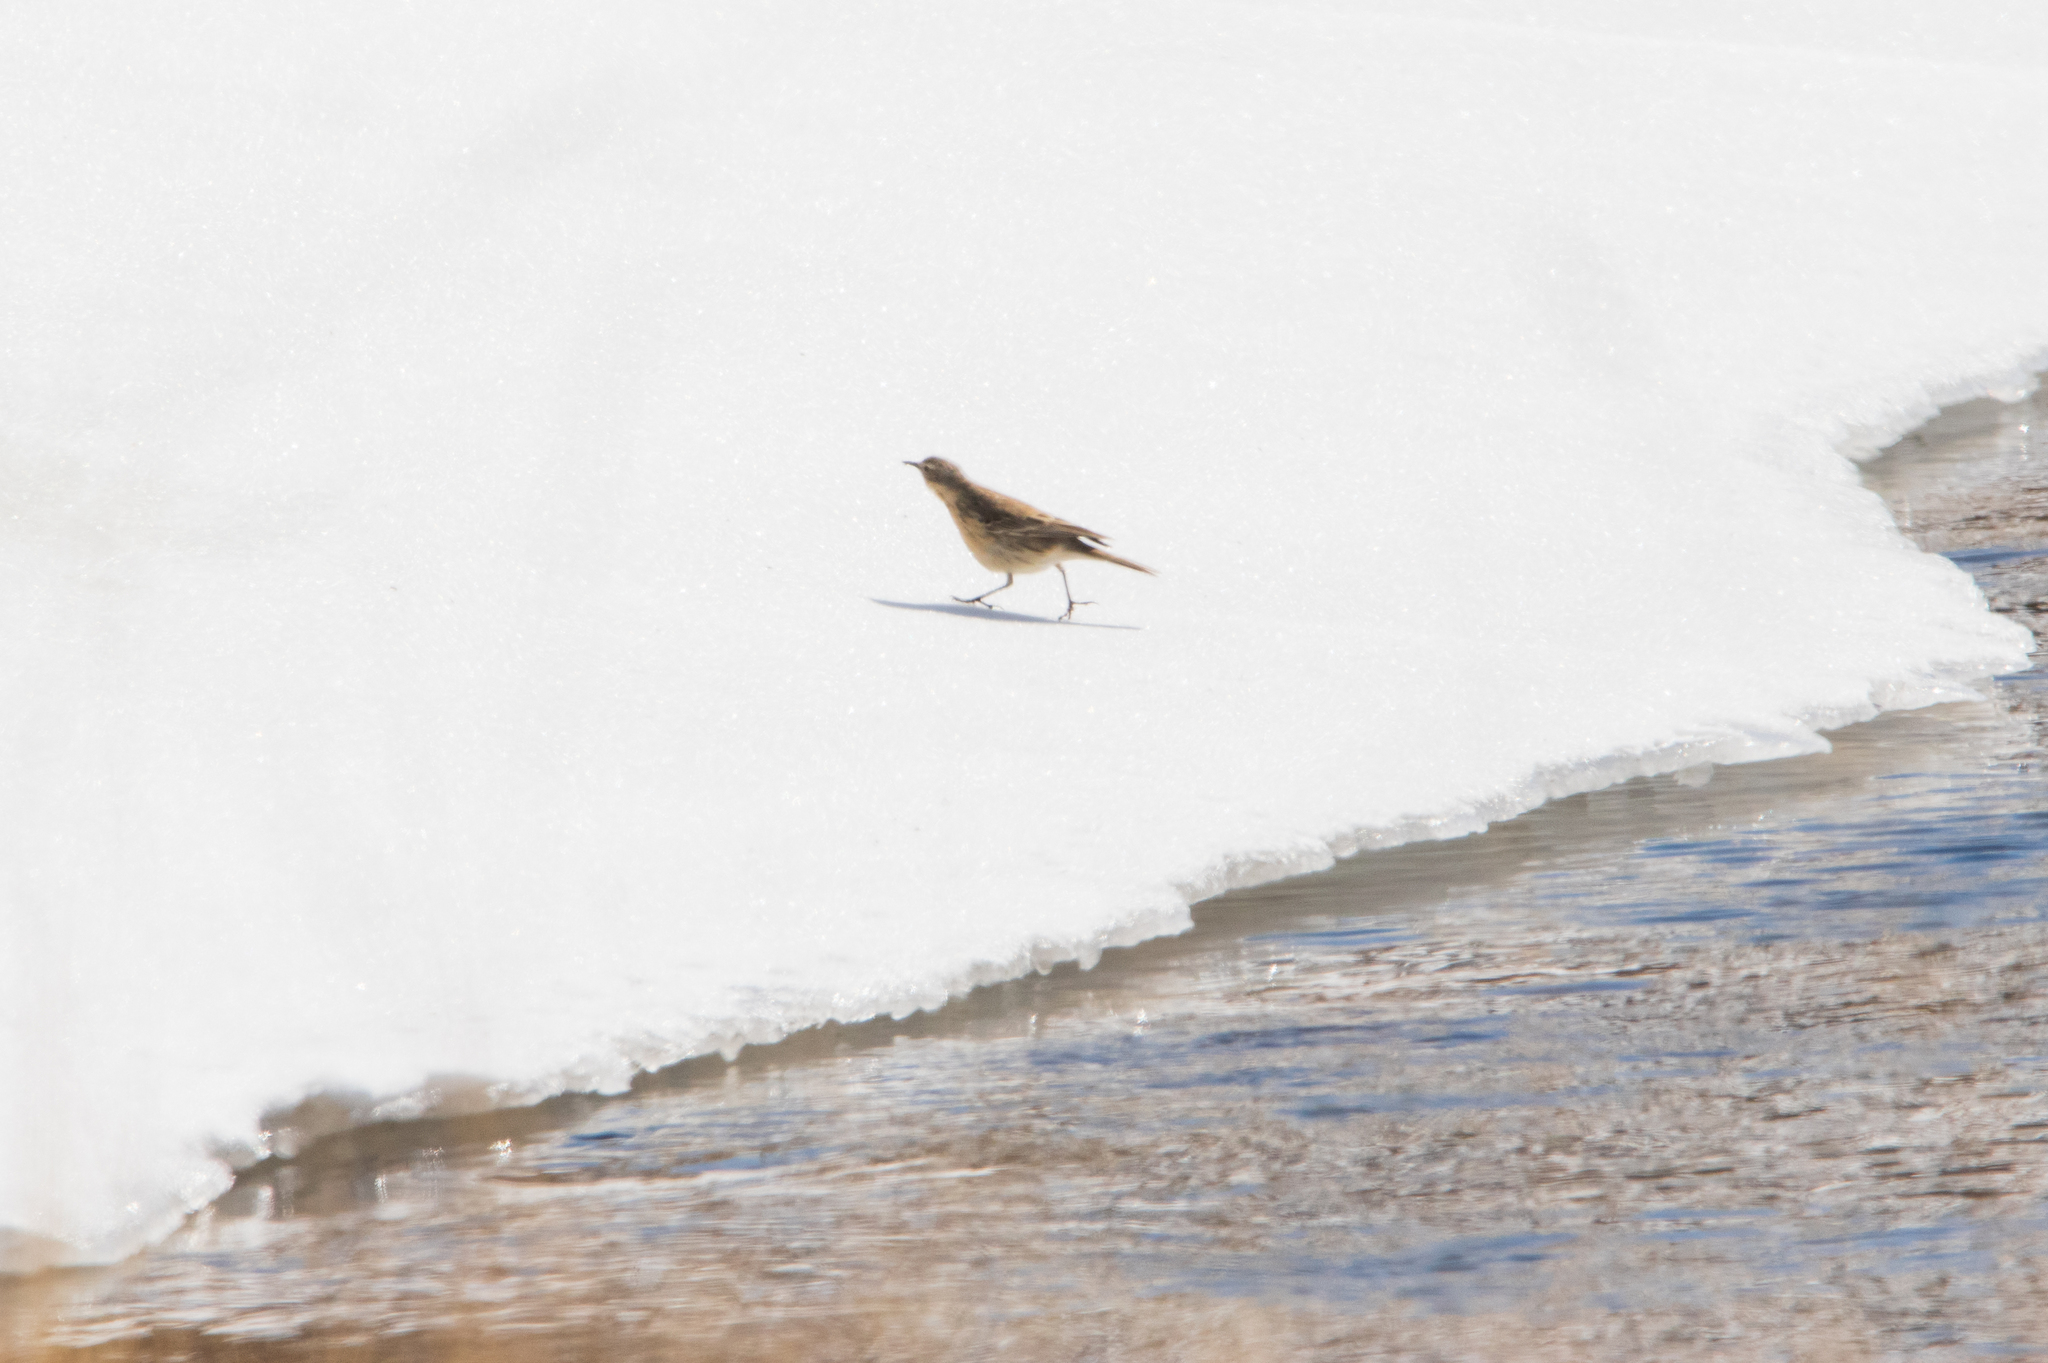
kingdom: Animalia
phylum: Chordata
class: Aves
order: Passeriformes
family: Motacillidae
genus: Anthus
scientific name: Anthus spinoletta
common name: Water pipit
